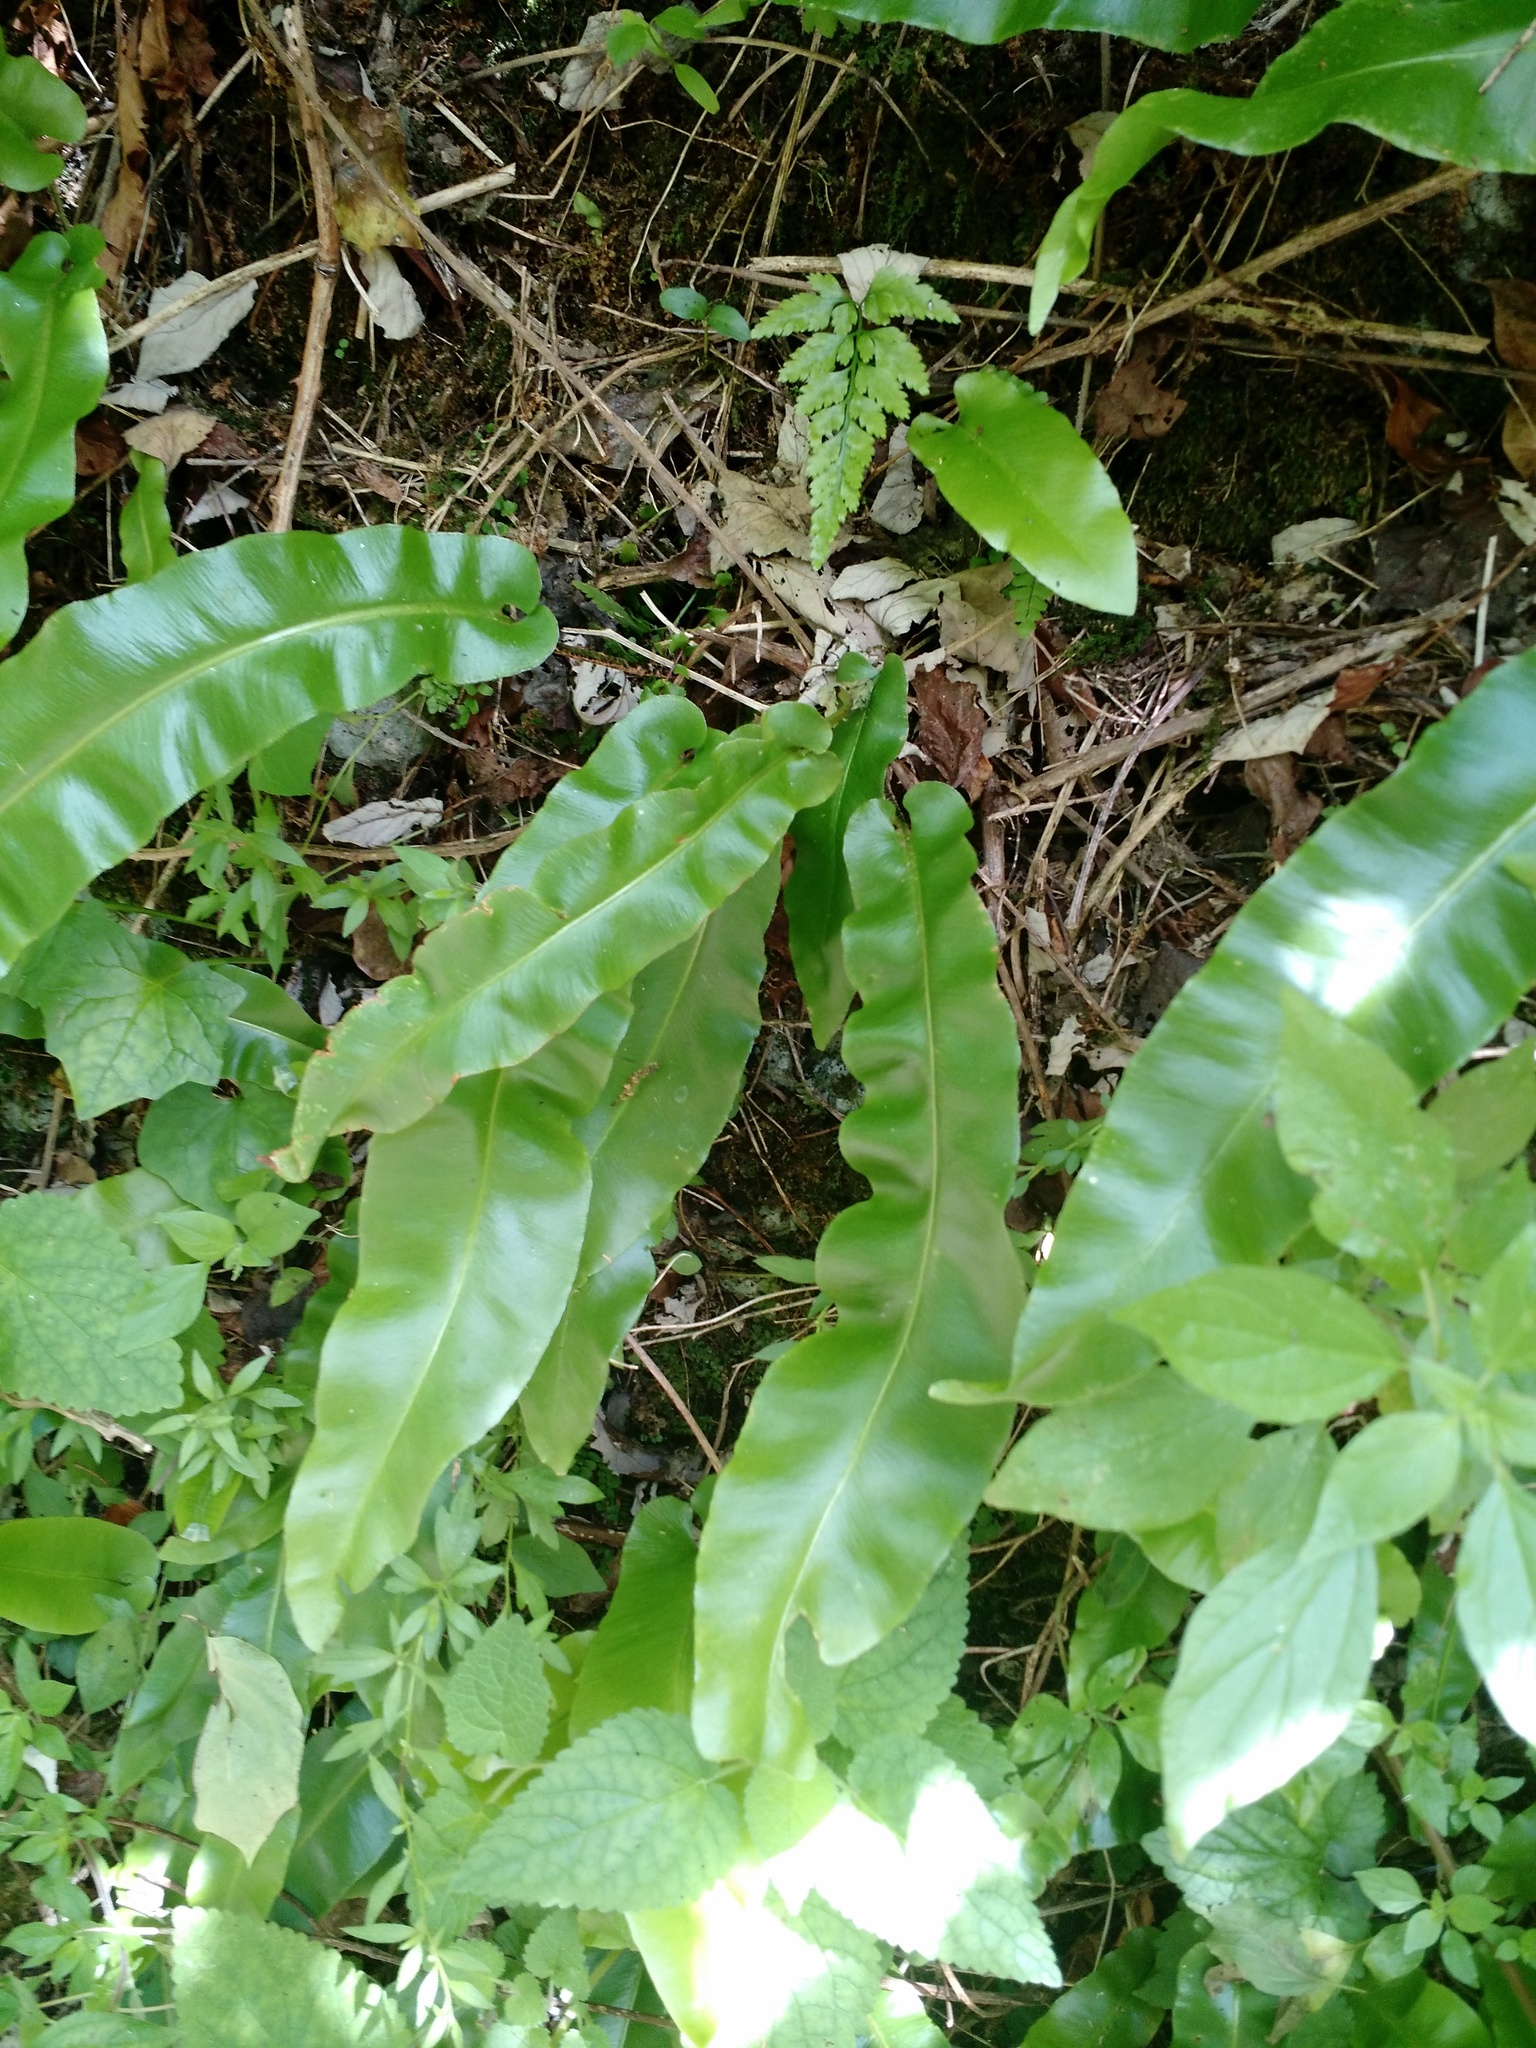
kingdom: Plantae
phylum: Tracheophyta
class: Polypodiopsida
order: Polypodiales
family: Aspleniaceae
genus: Asplenium
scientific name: Asplenium scolopendrium
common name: Hart's-tongue fern
